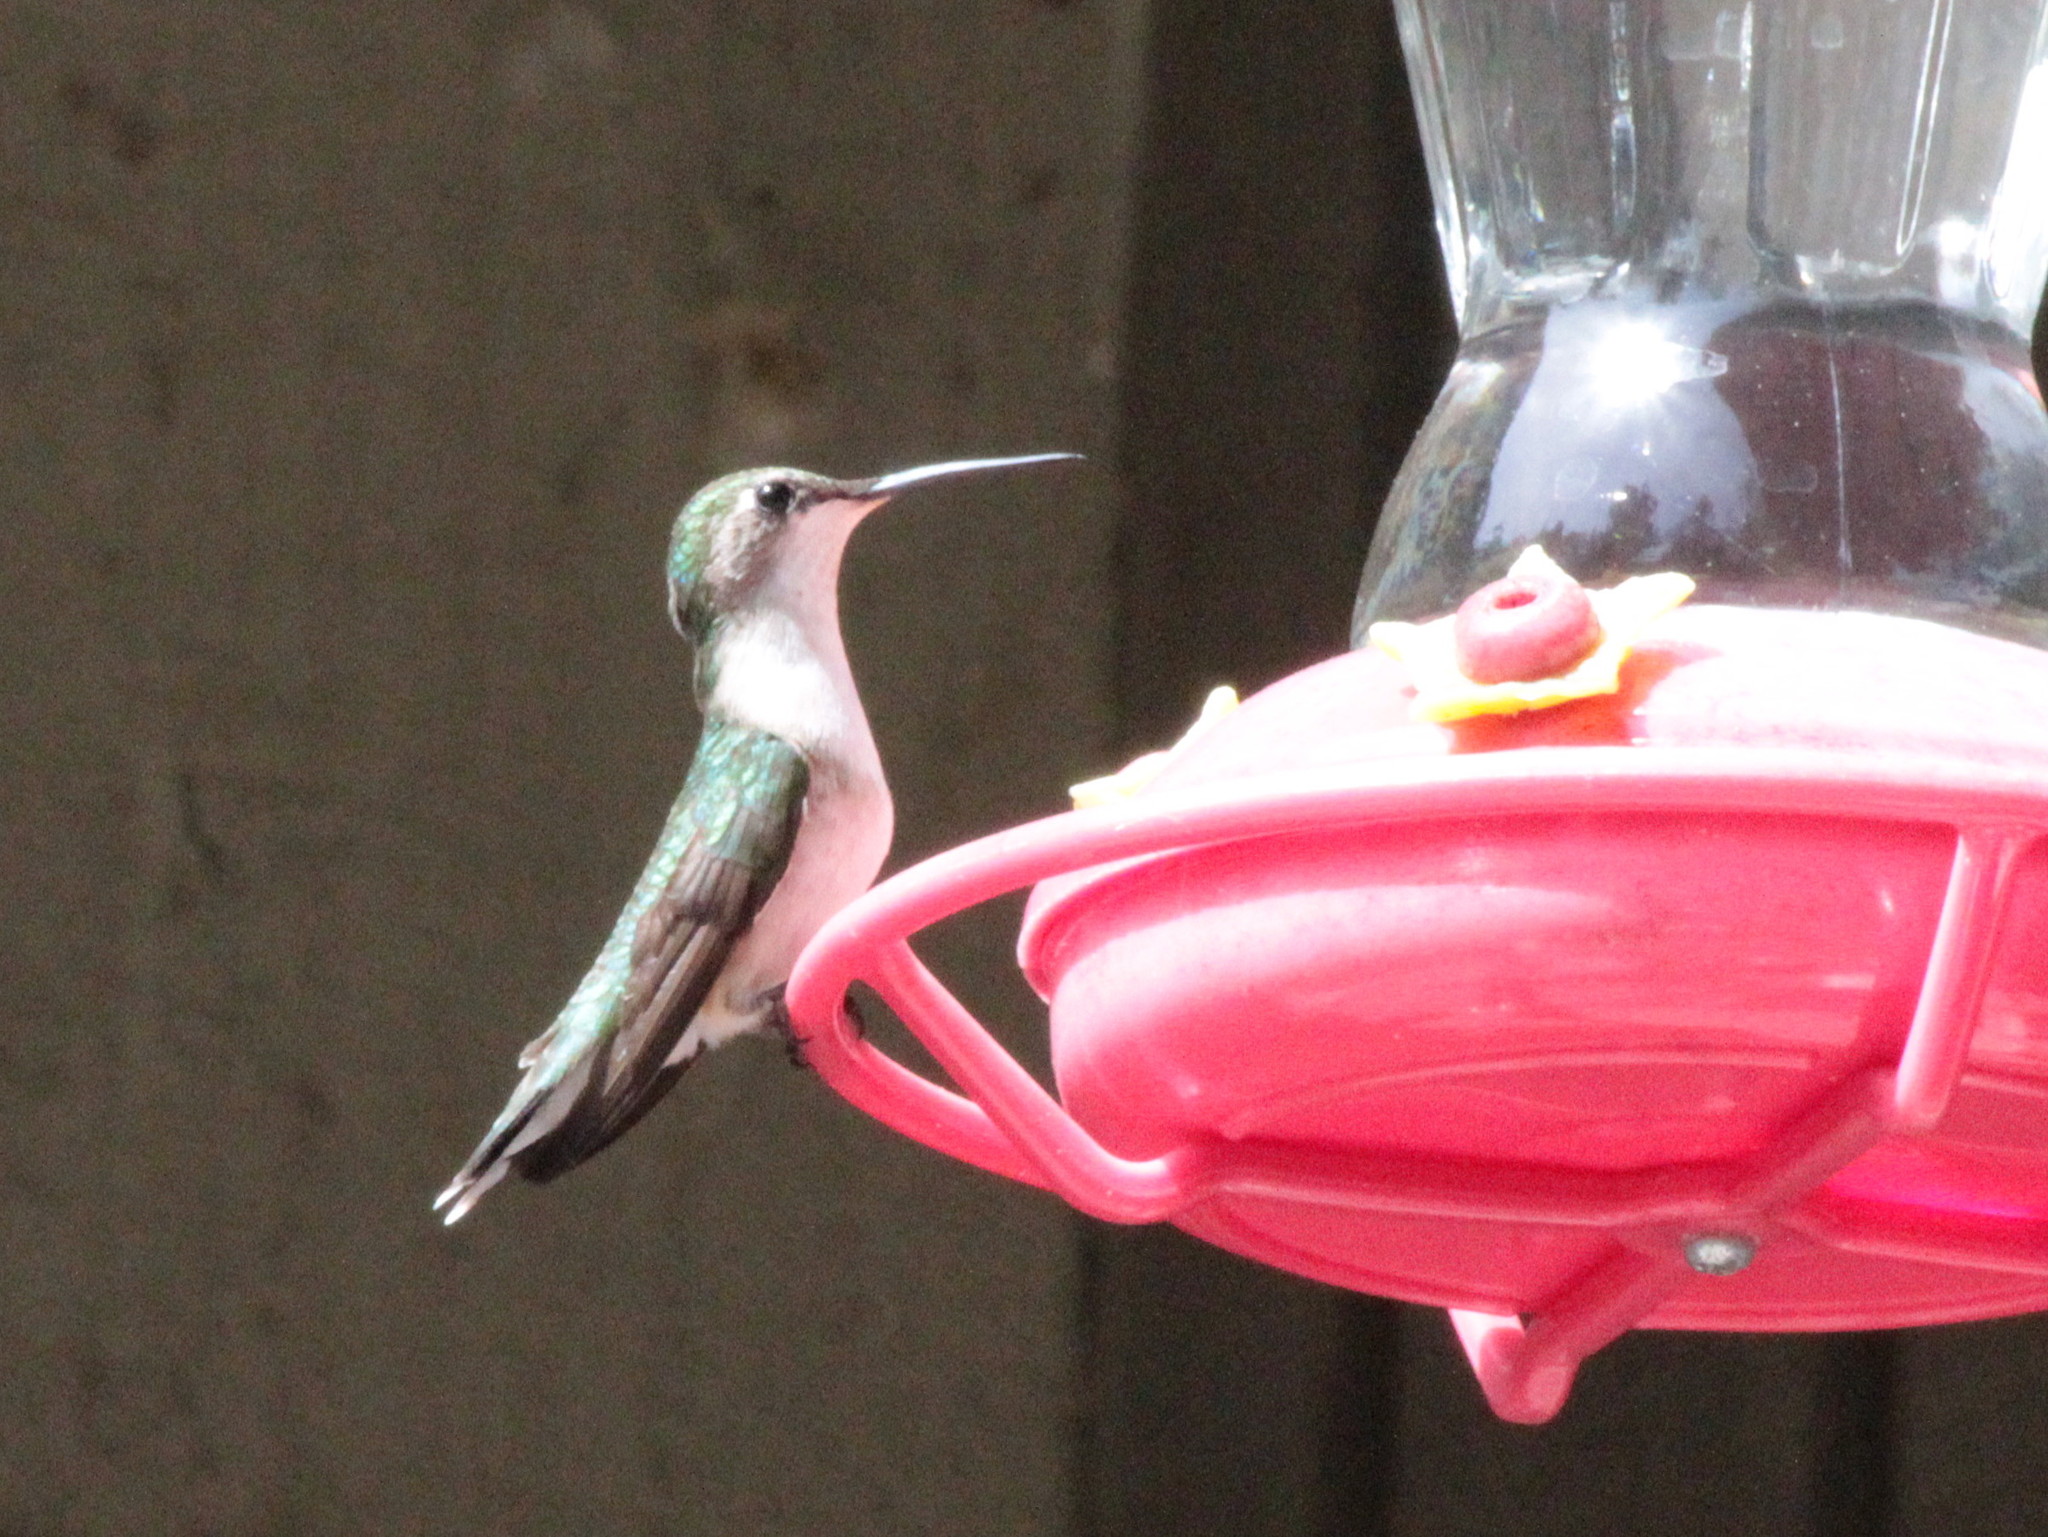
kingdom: Animalia
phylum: Chordata
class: Aves
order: Apodiformes
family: Trochilidae
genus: Archilochus
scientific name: Archilochus colubris
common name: Ruby-throated hummingbird
